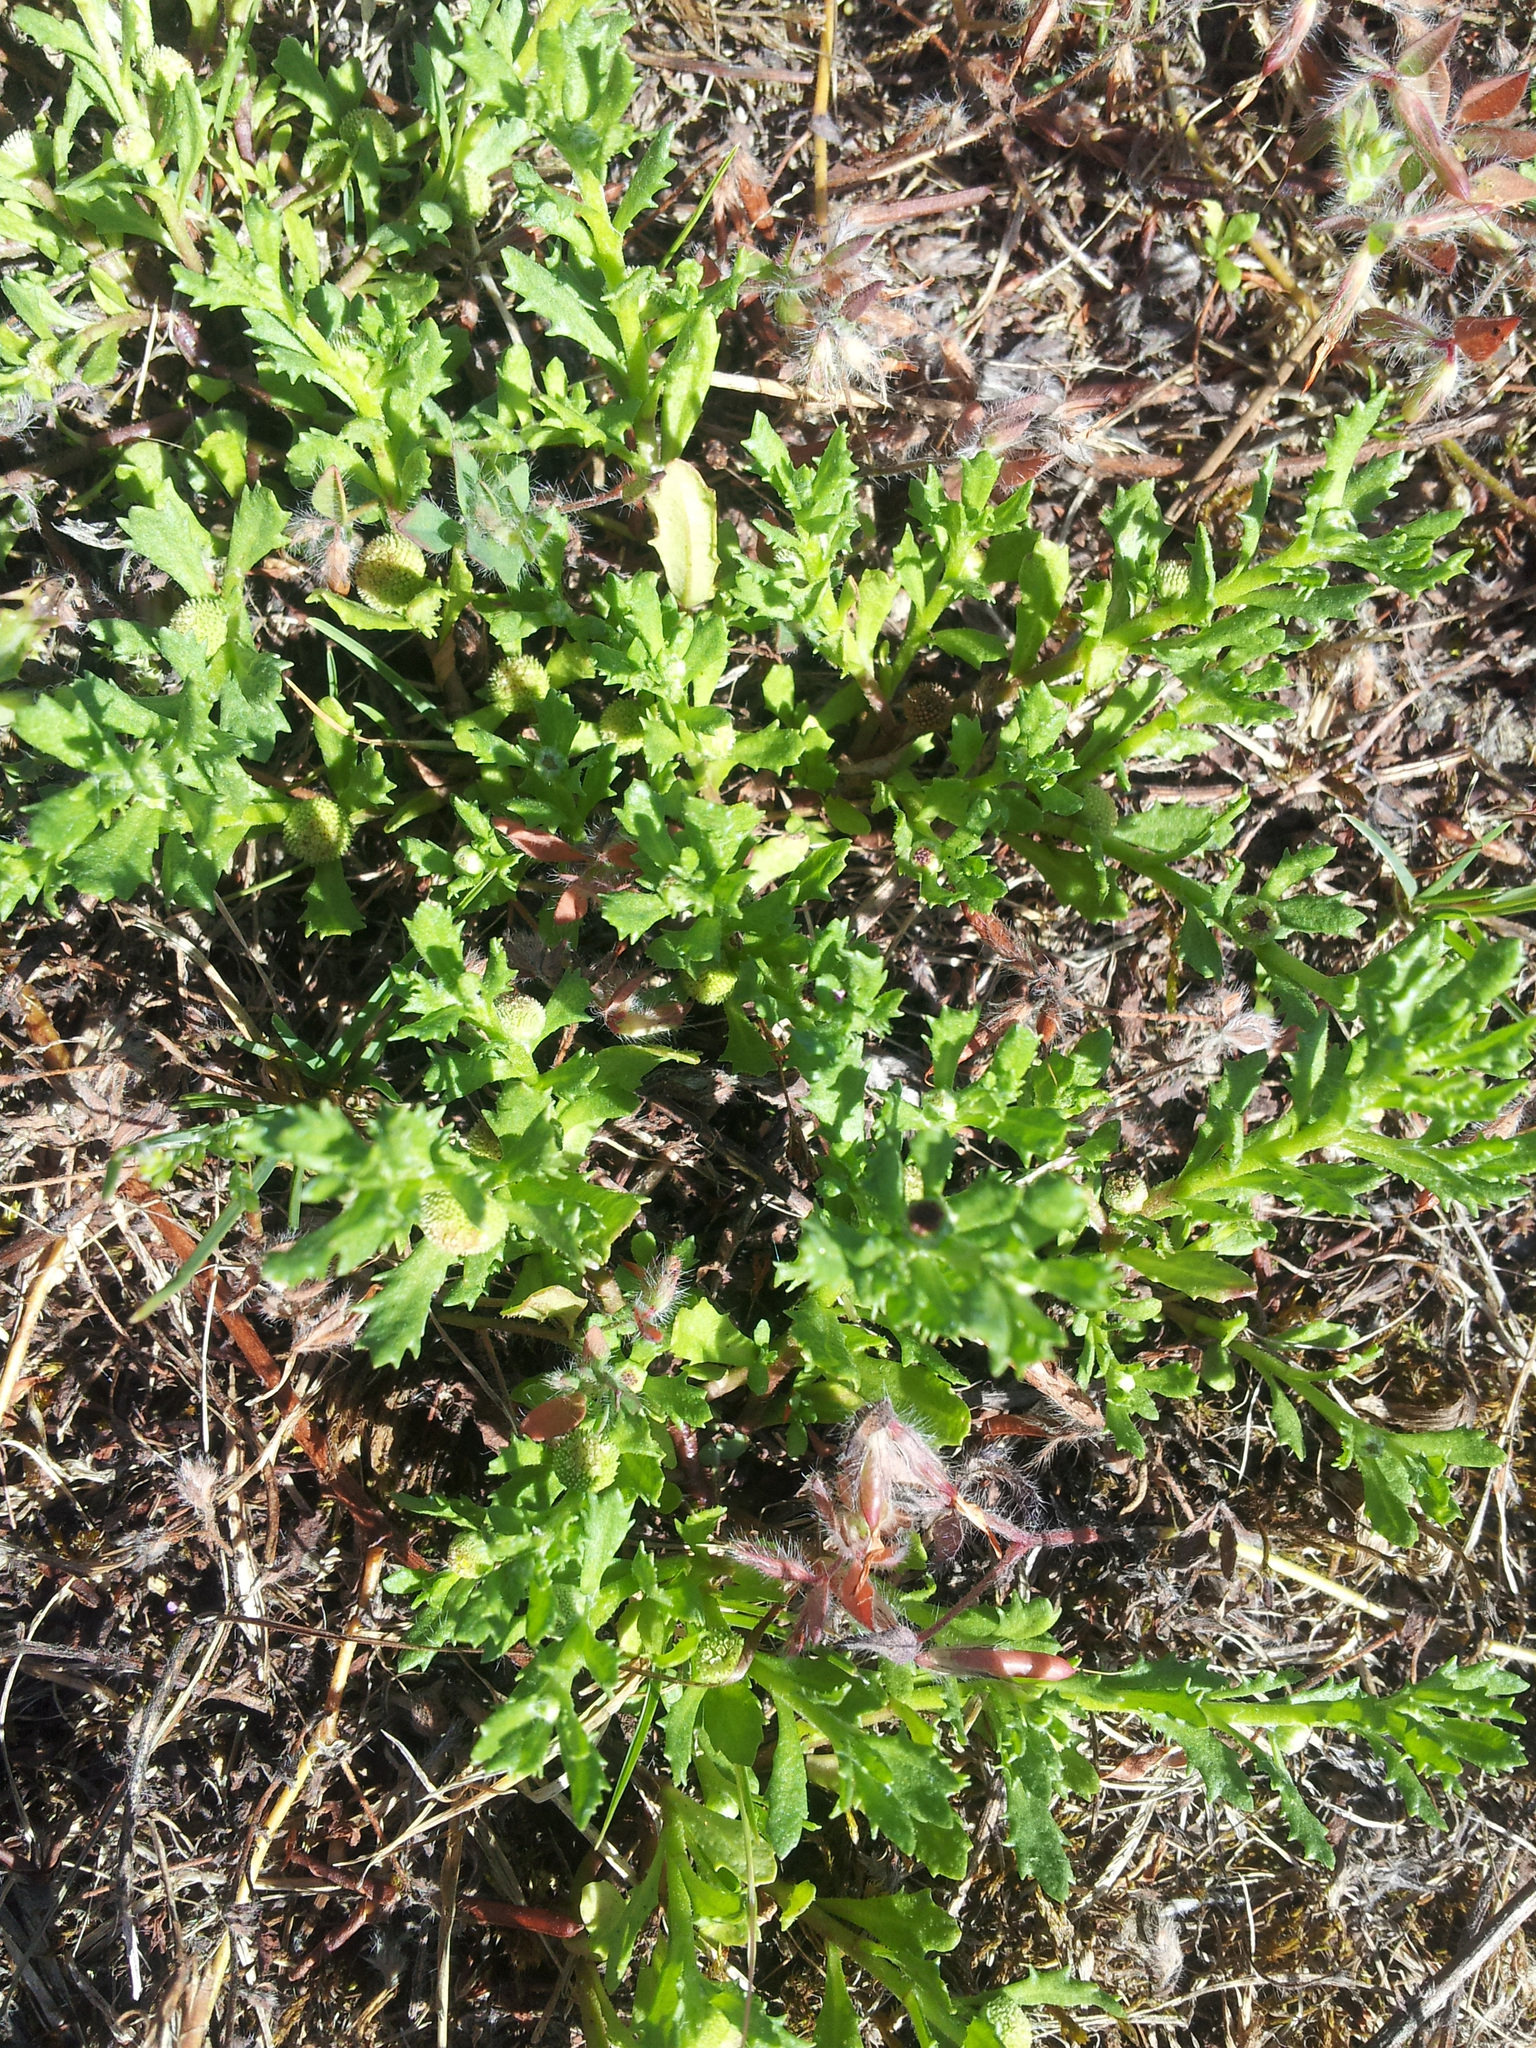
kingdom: Plantae
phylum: Tracheophyta
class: Magnoliopsida
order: Asterales
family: Asteraceae
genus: Centipeda
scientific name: Centipeda cunninghamii
